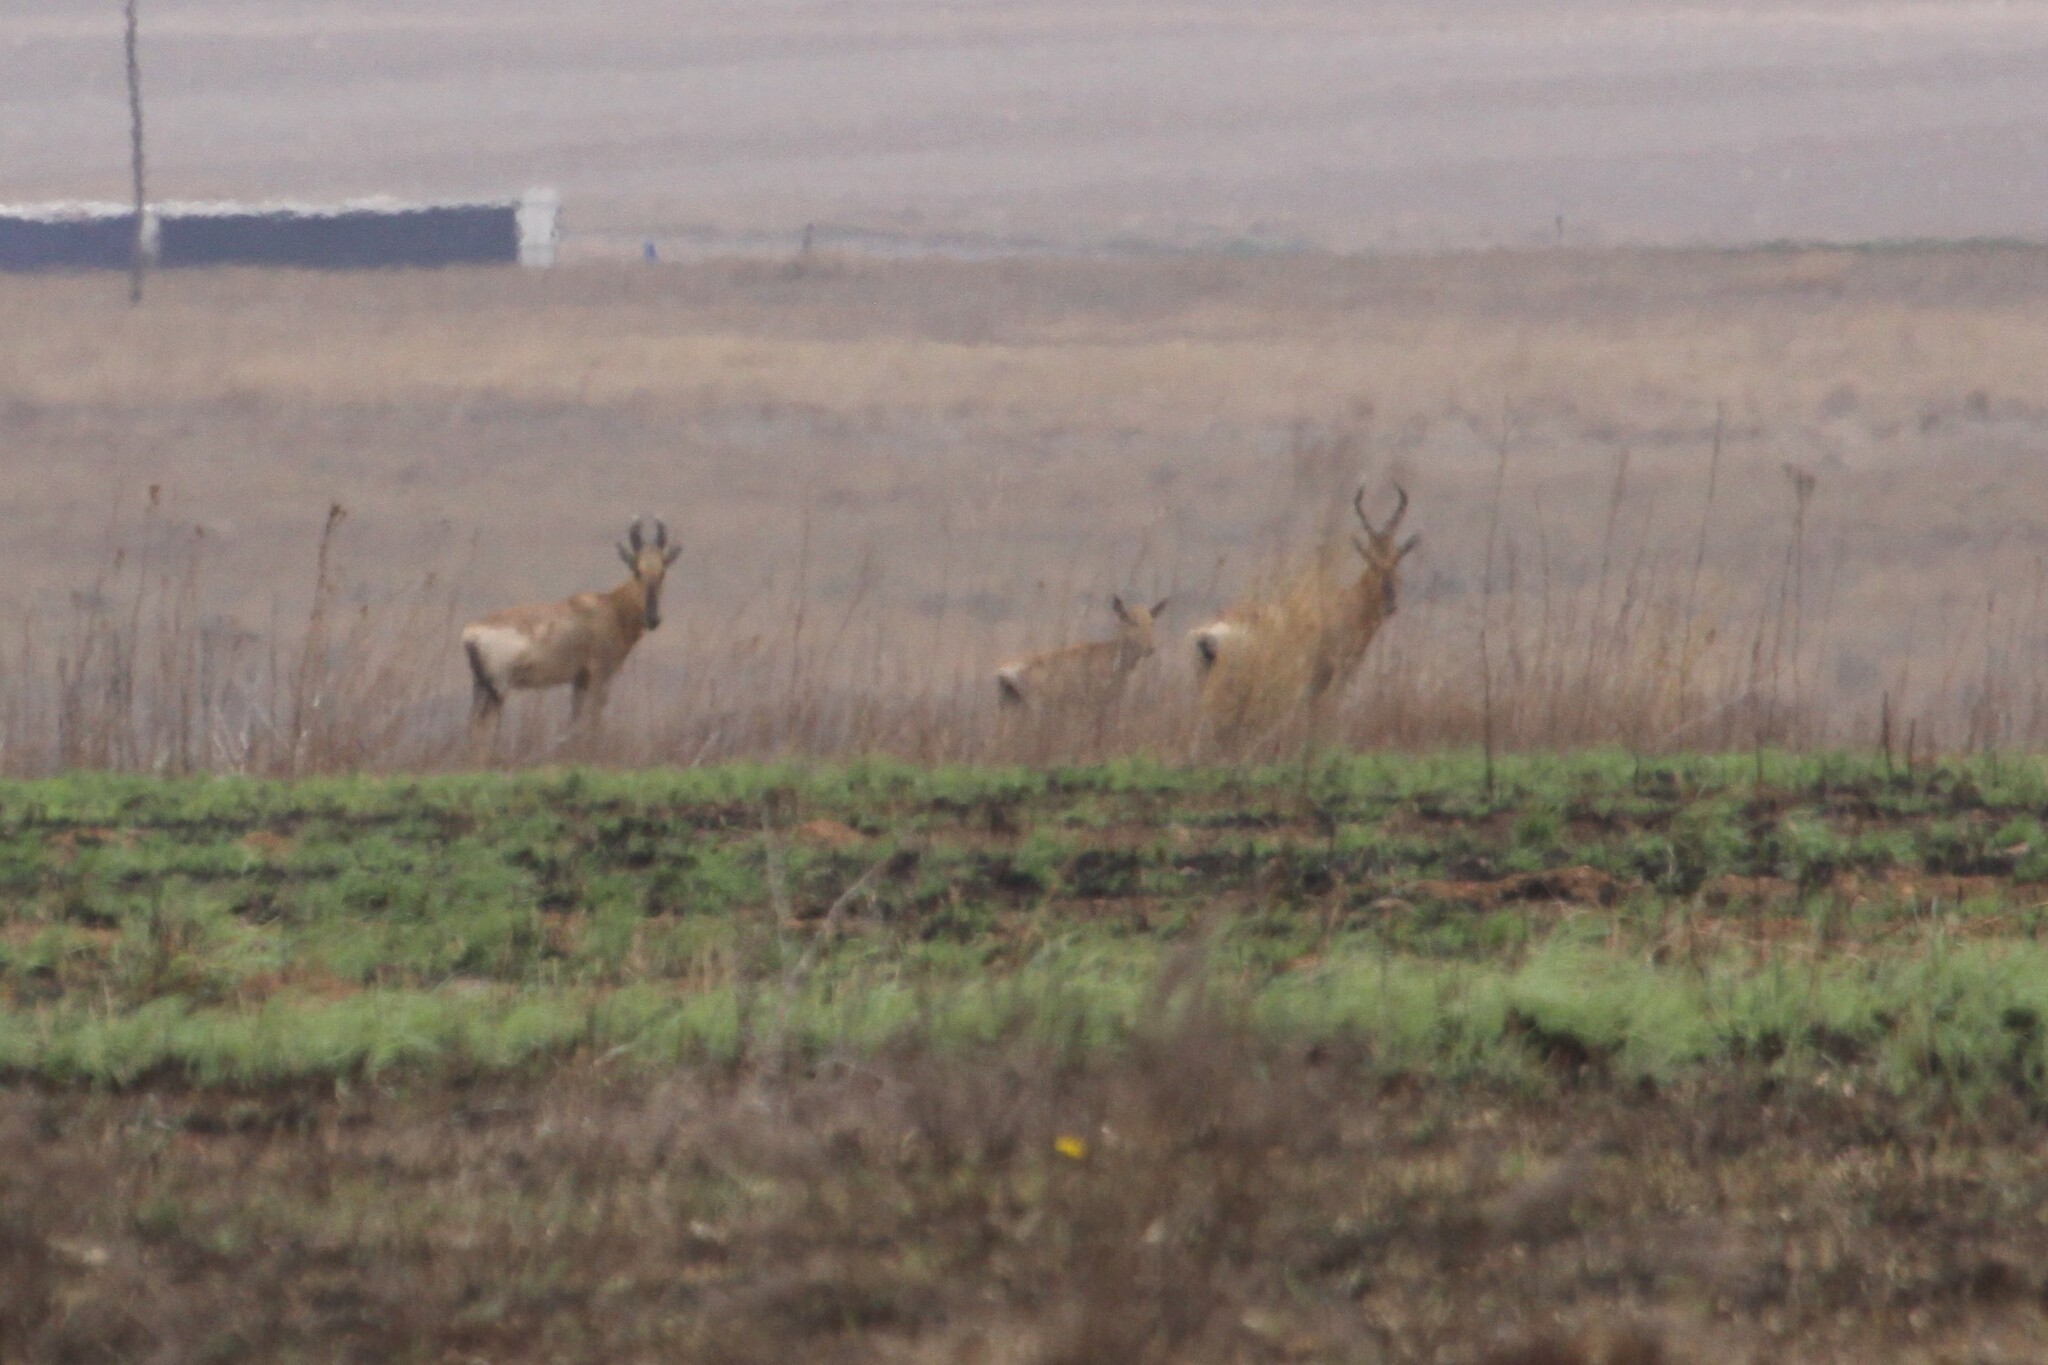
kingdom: Animalia
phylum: Chordata
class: Mammalia
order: Artiodactyla
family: Bovidae
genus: Alcelaphus
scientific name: Alcelaphus caama
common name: Red hartebeest
